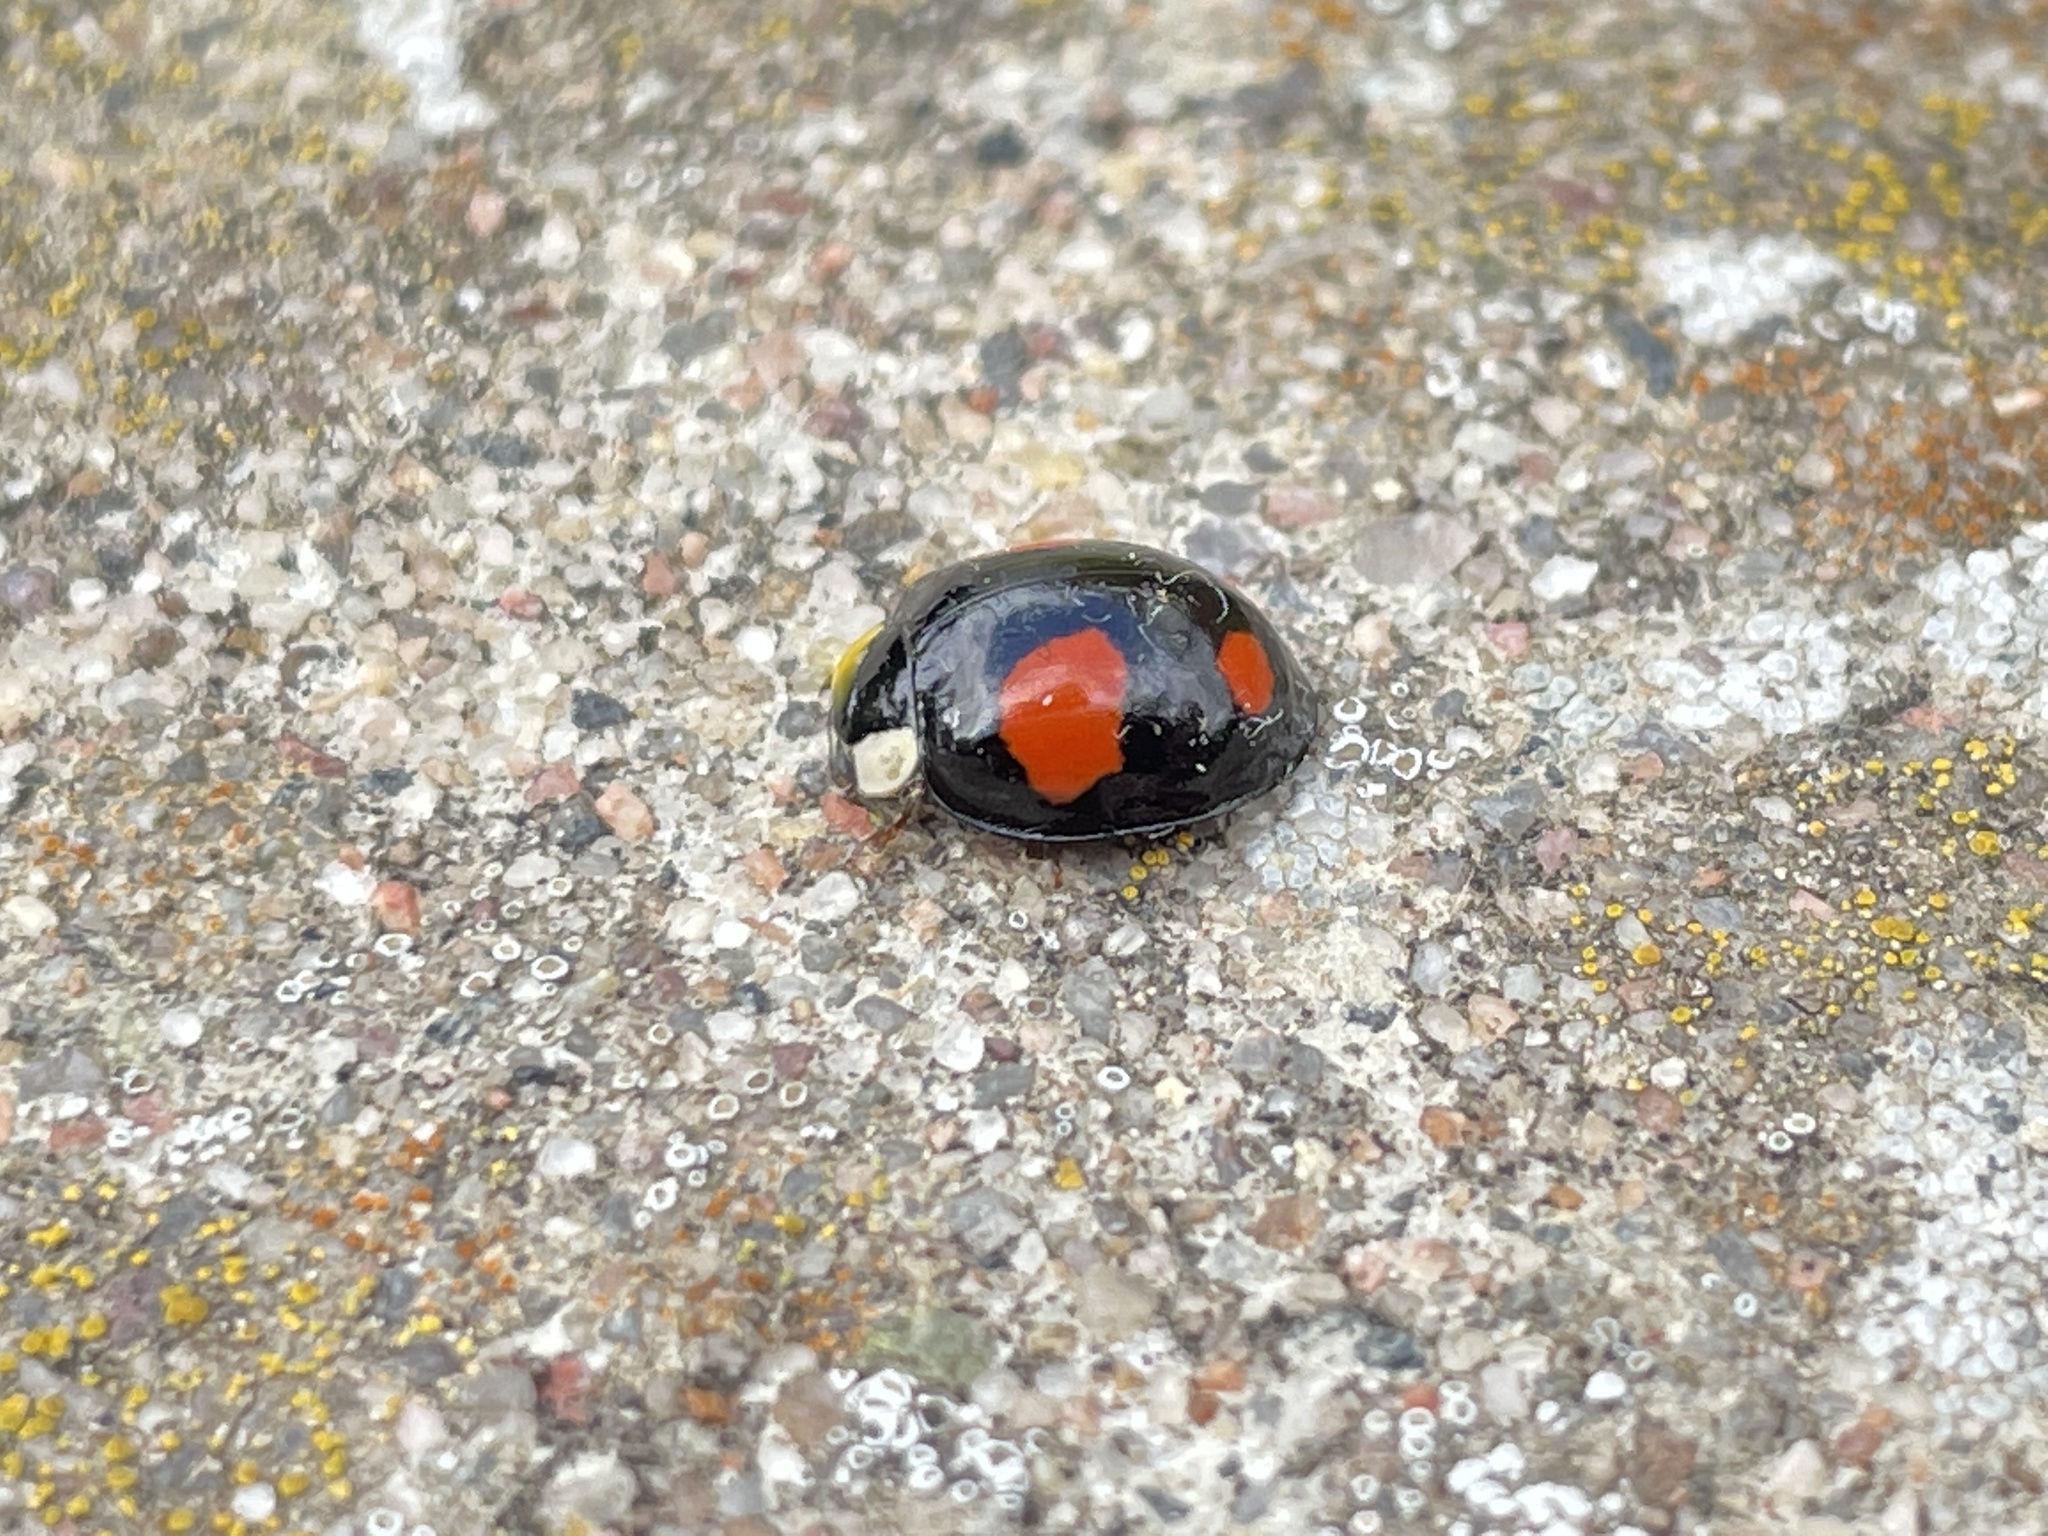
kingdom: Animalia
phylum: Arthropoda
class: Insecta
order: Coleoptera
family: Coccinellidae
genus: Harmonia
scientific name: Harmonia axyridis
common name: Harlequin ladybird
